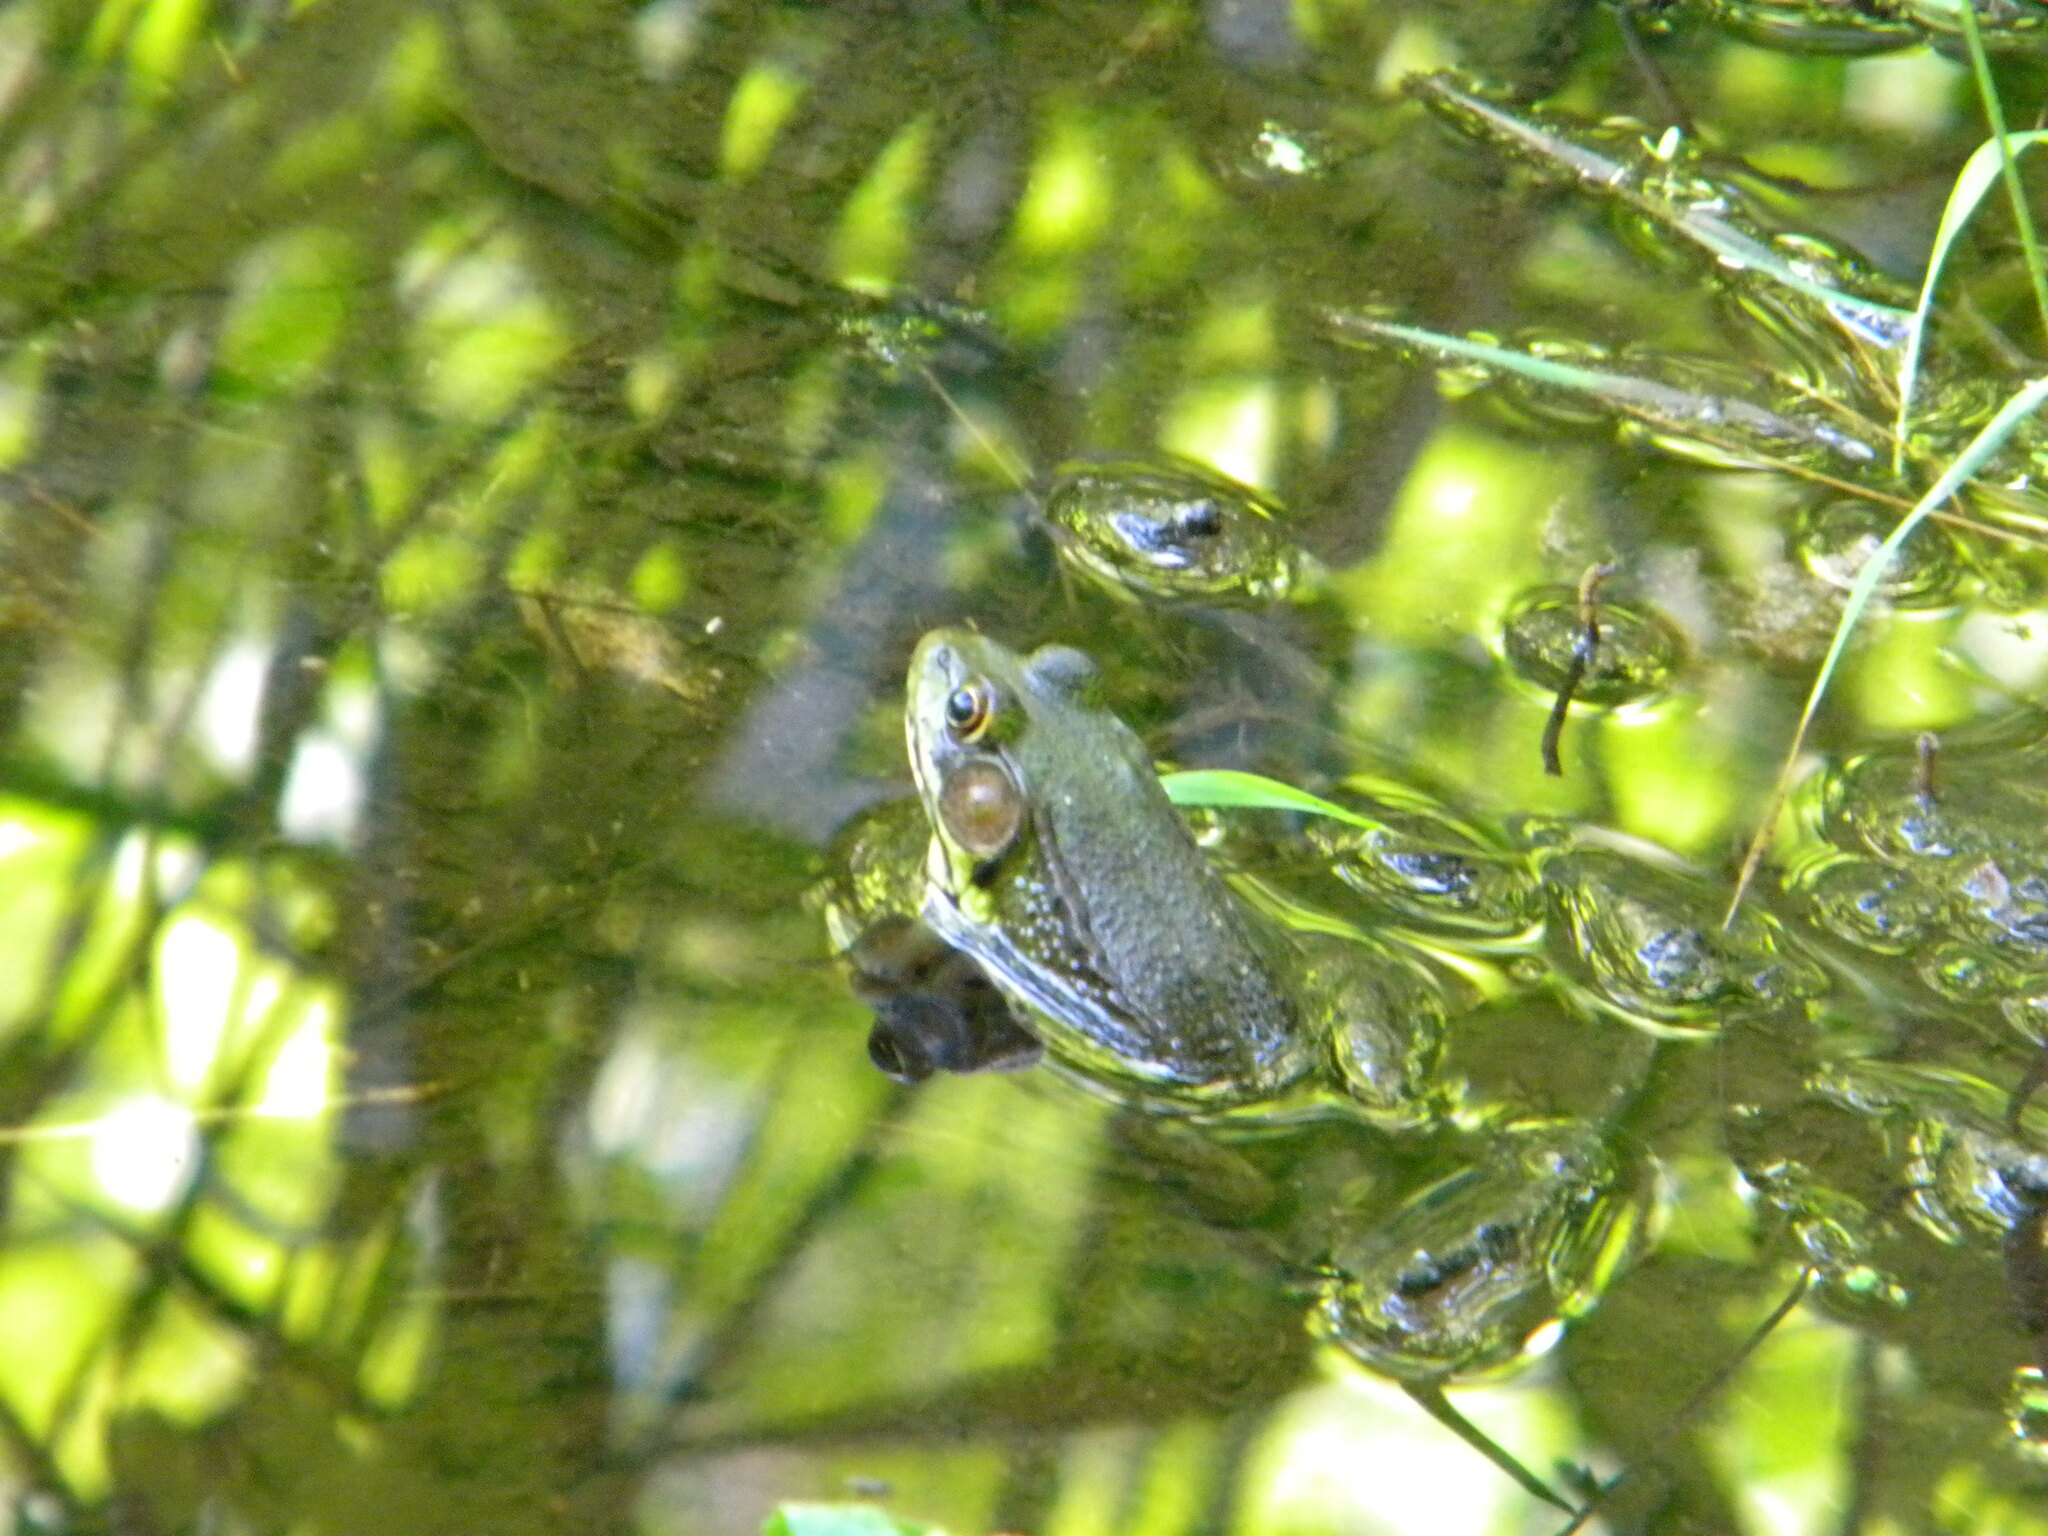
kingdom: Animalia
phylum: Chordata
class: Amphibia
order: Anura
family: Ranidae
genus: Lithobates
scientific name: Lithobates clamitans
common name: Green frog
